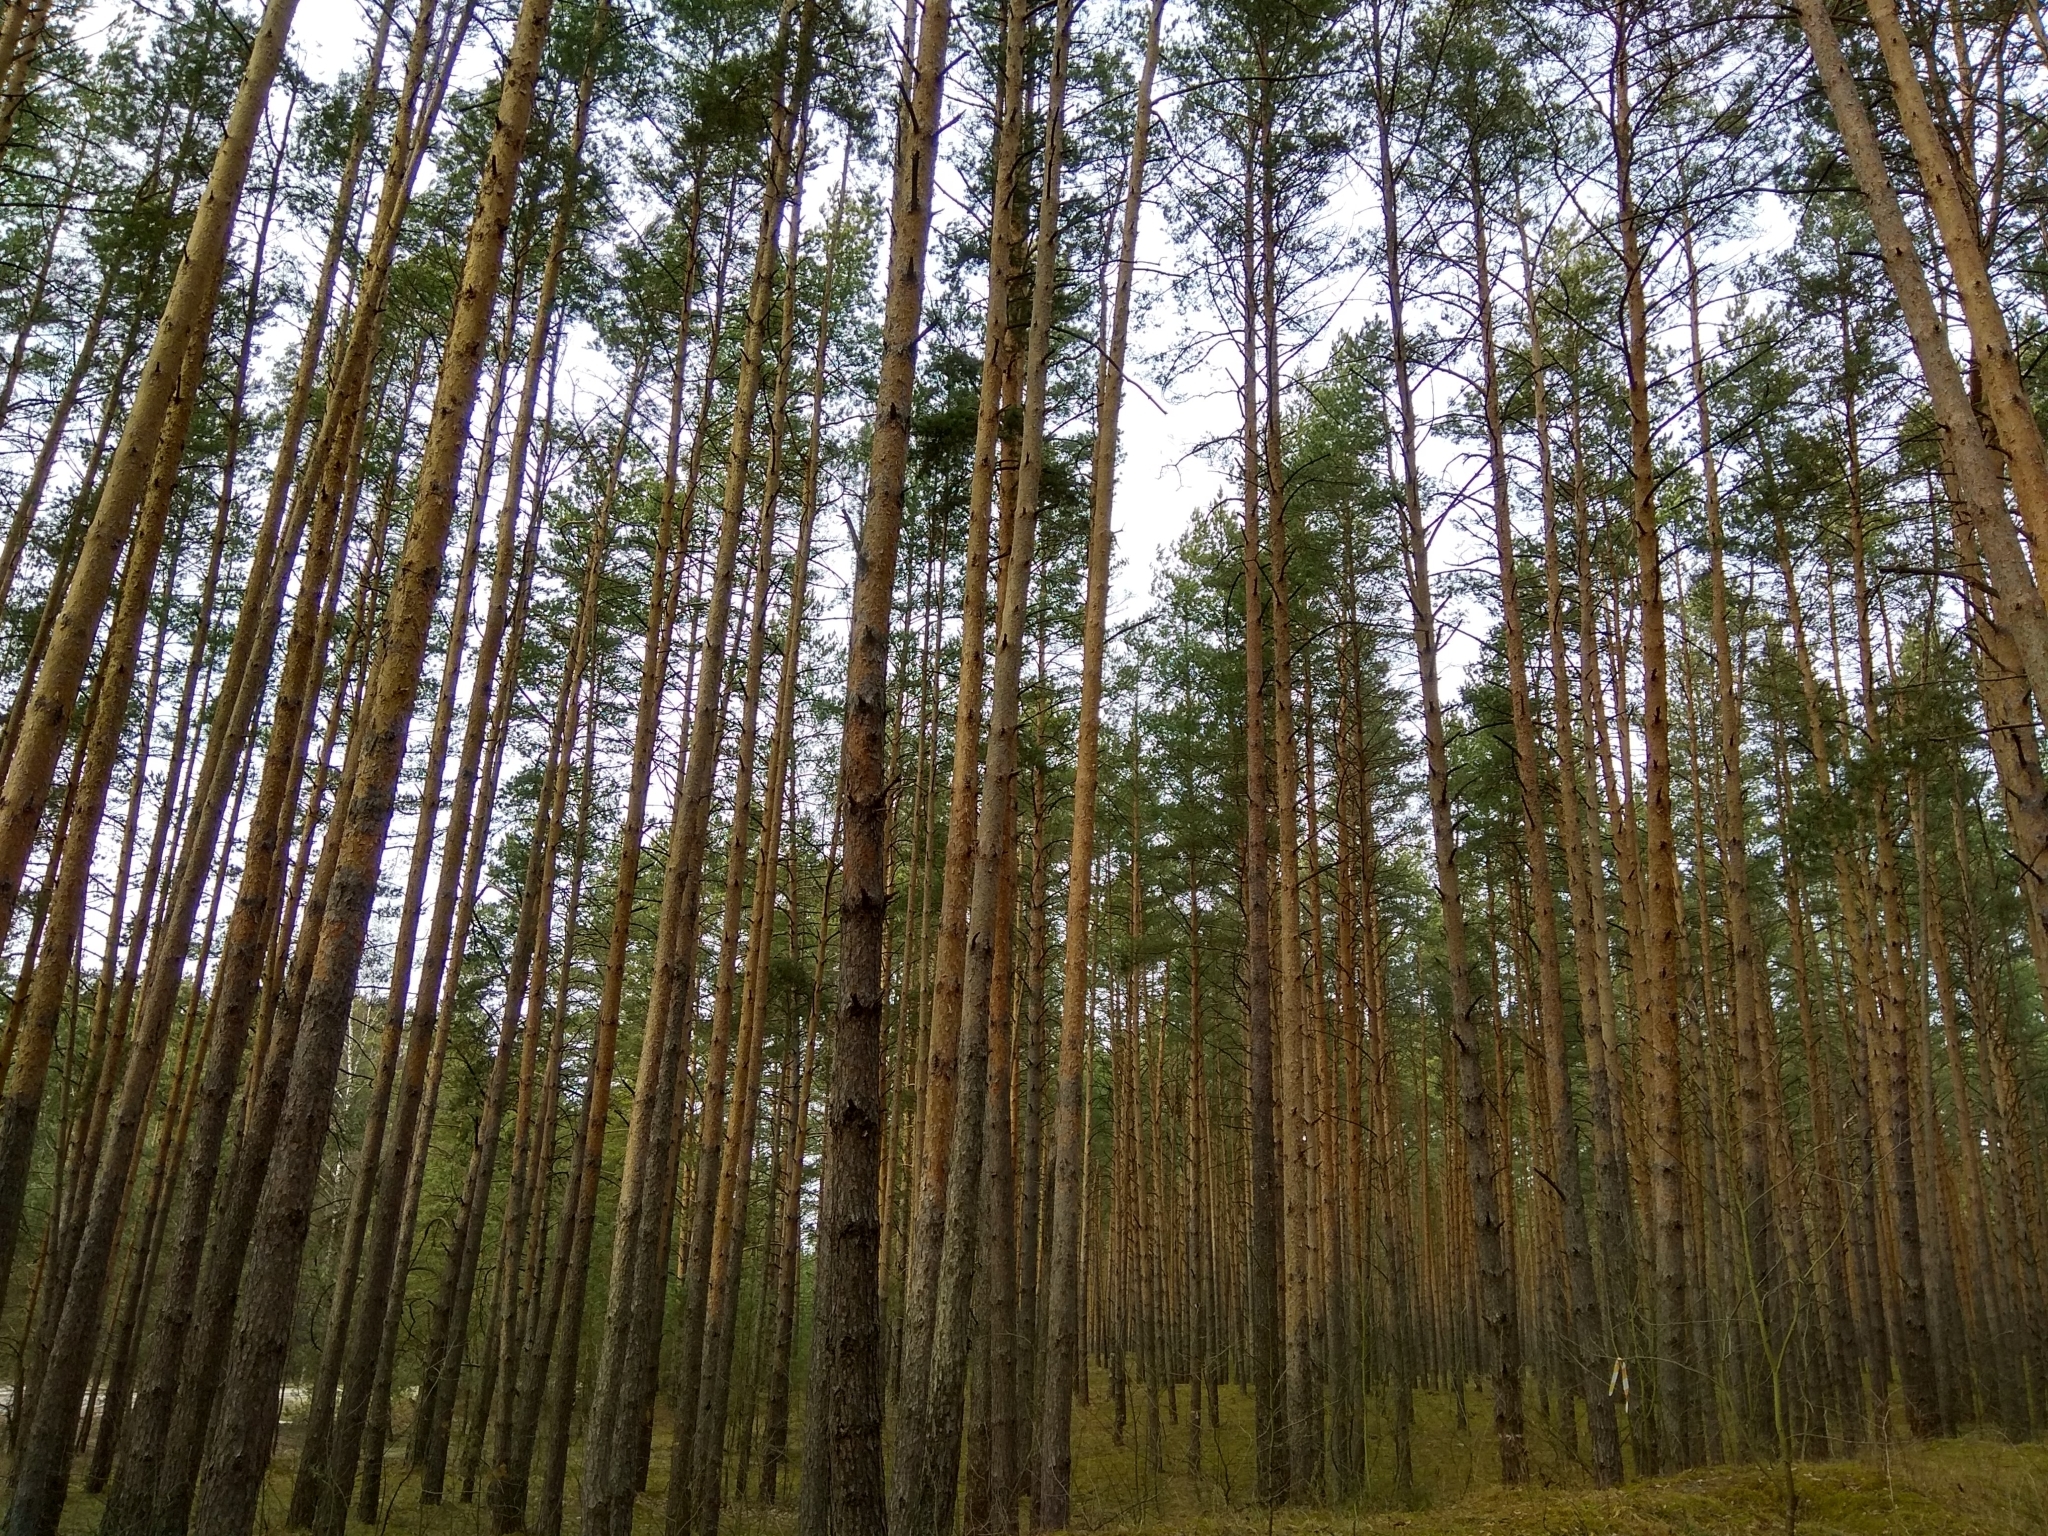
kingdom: Plantae
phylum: Tracheophyta
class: Pinopsida
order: Pinales
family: Pinaceae
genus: Pinus
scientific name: Pinus sylvestris
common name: Scots pine
